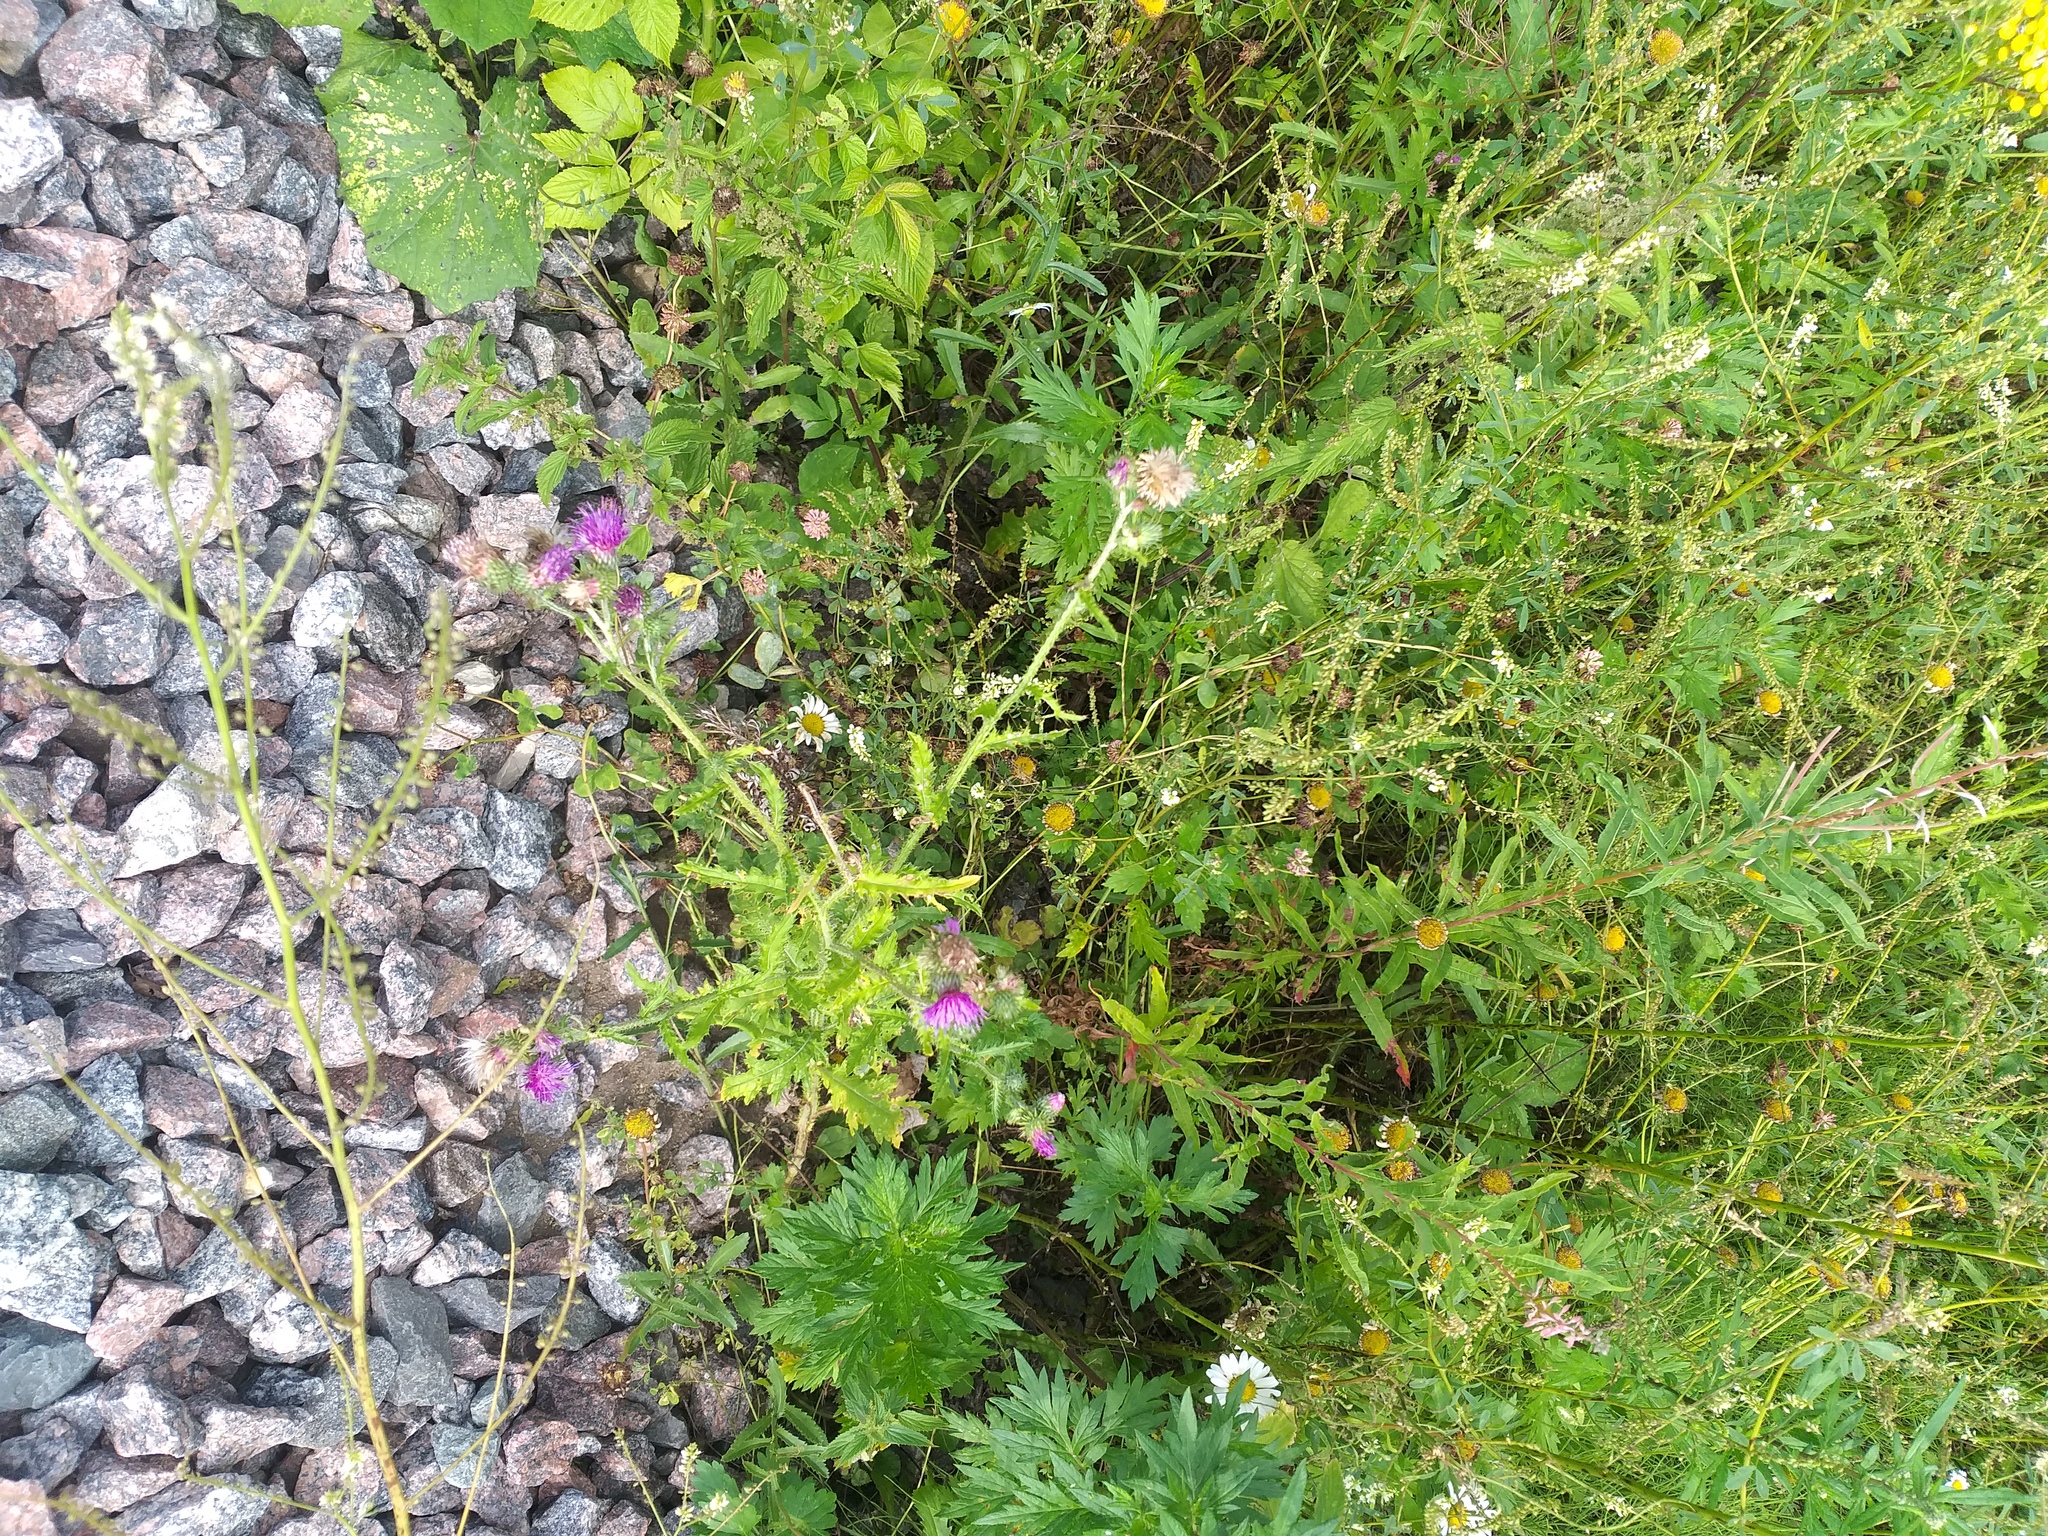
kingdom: Plantae
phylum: Tracheophyta
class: Magnoliopsida
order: Asterales
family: Asteraceae
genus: Carduus
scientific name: Carduus crispus
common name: Welted thistle
